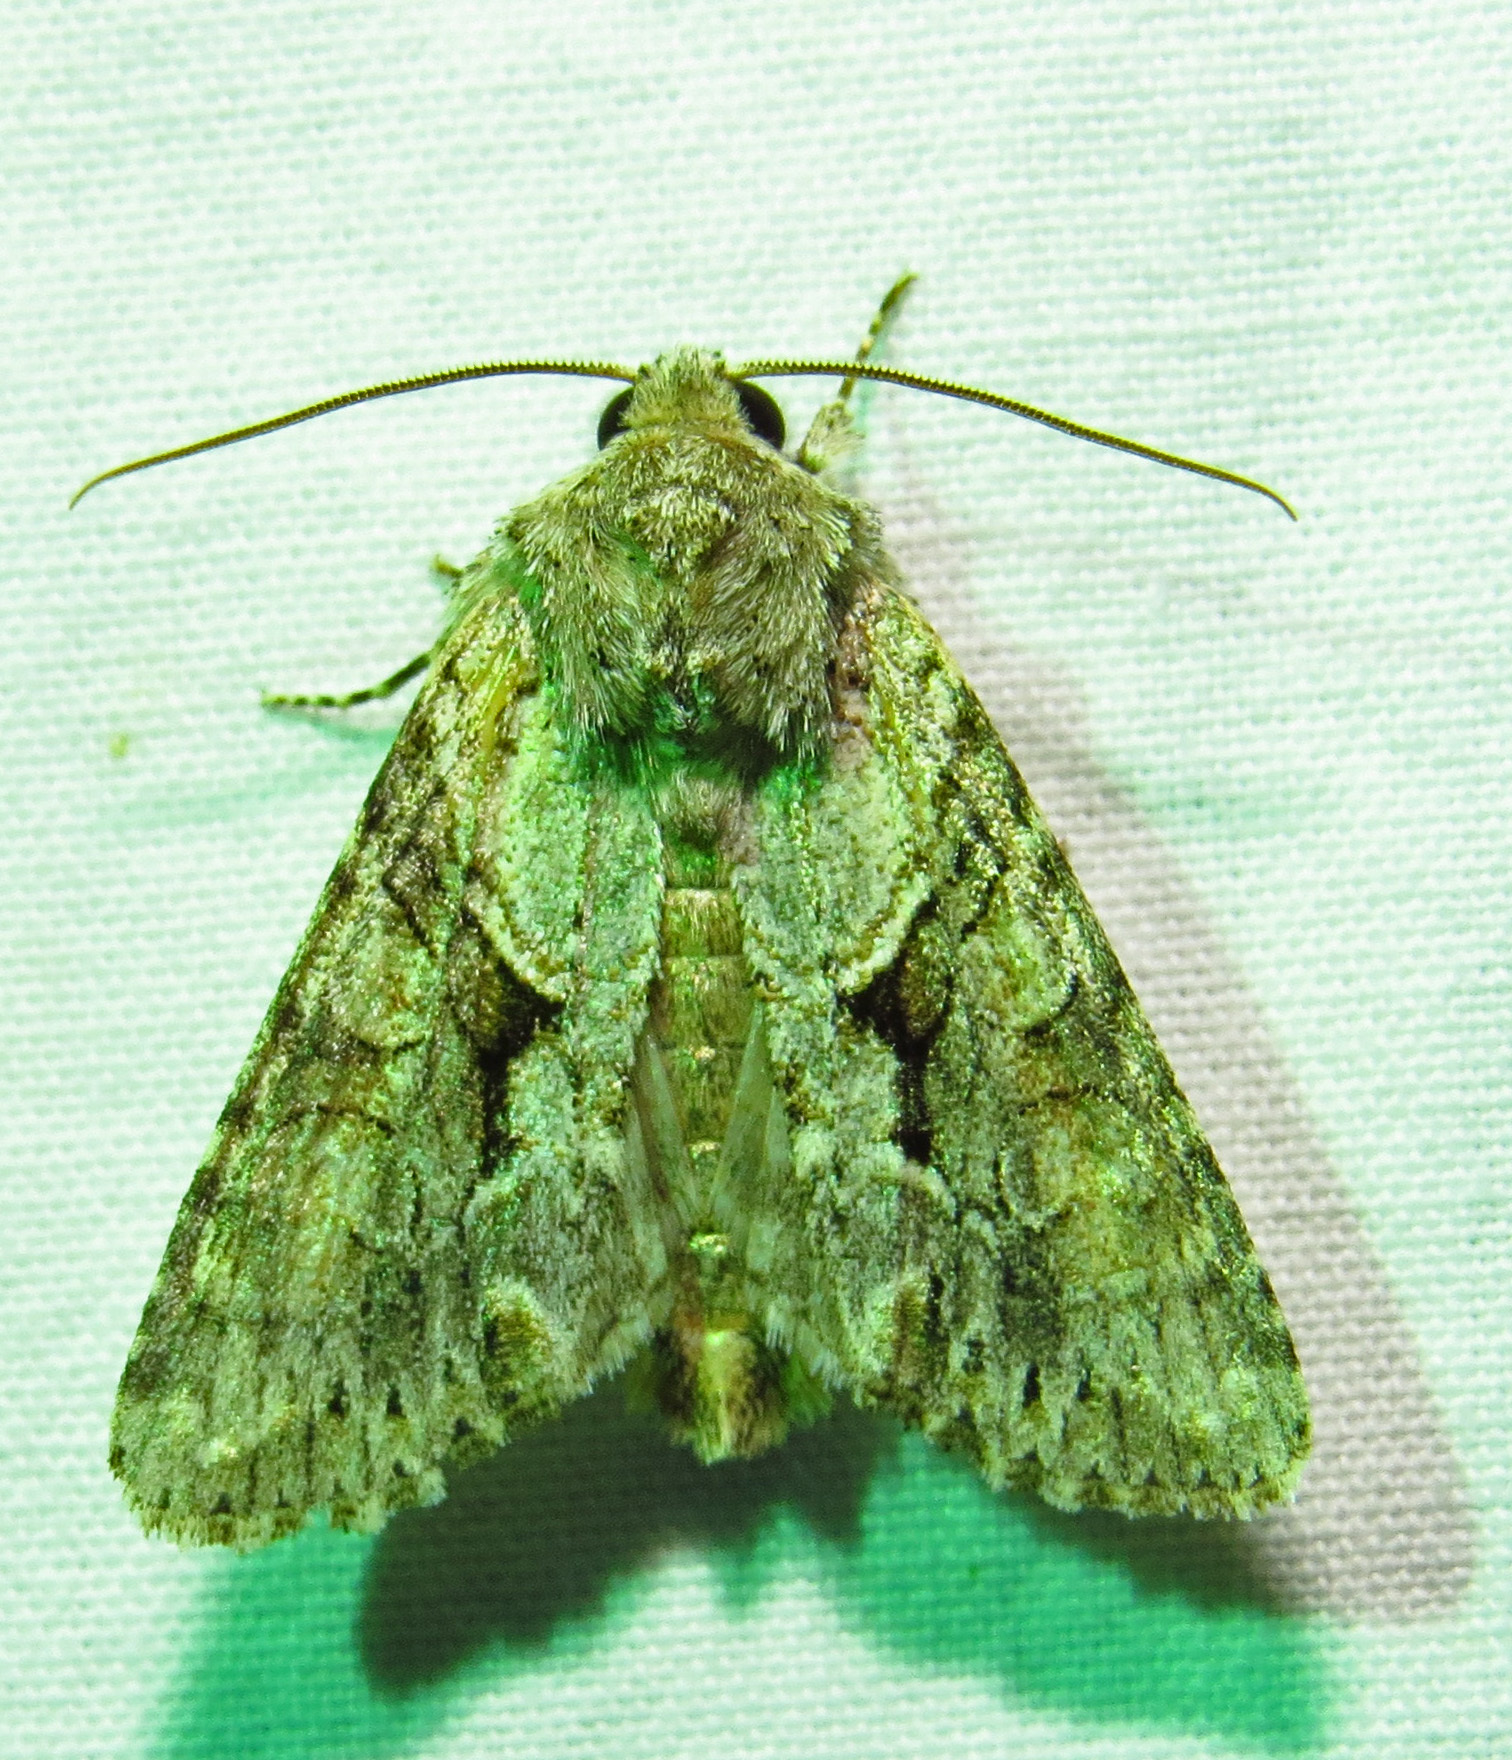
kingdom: Animalia
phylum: Arthropoda
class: Insecta
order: Lepidoptera
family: Noctuidae
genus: Achatia
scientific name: Achatia distincta
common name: Distinct quaker
